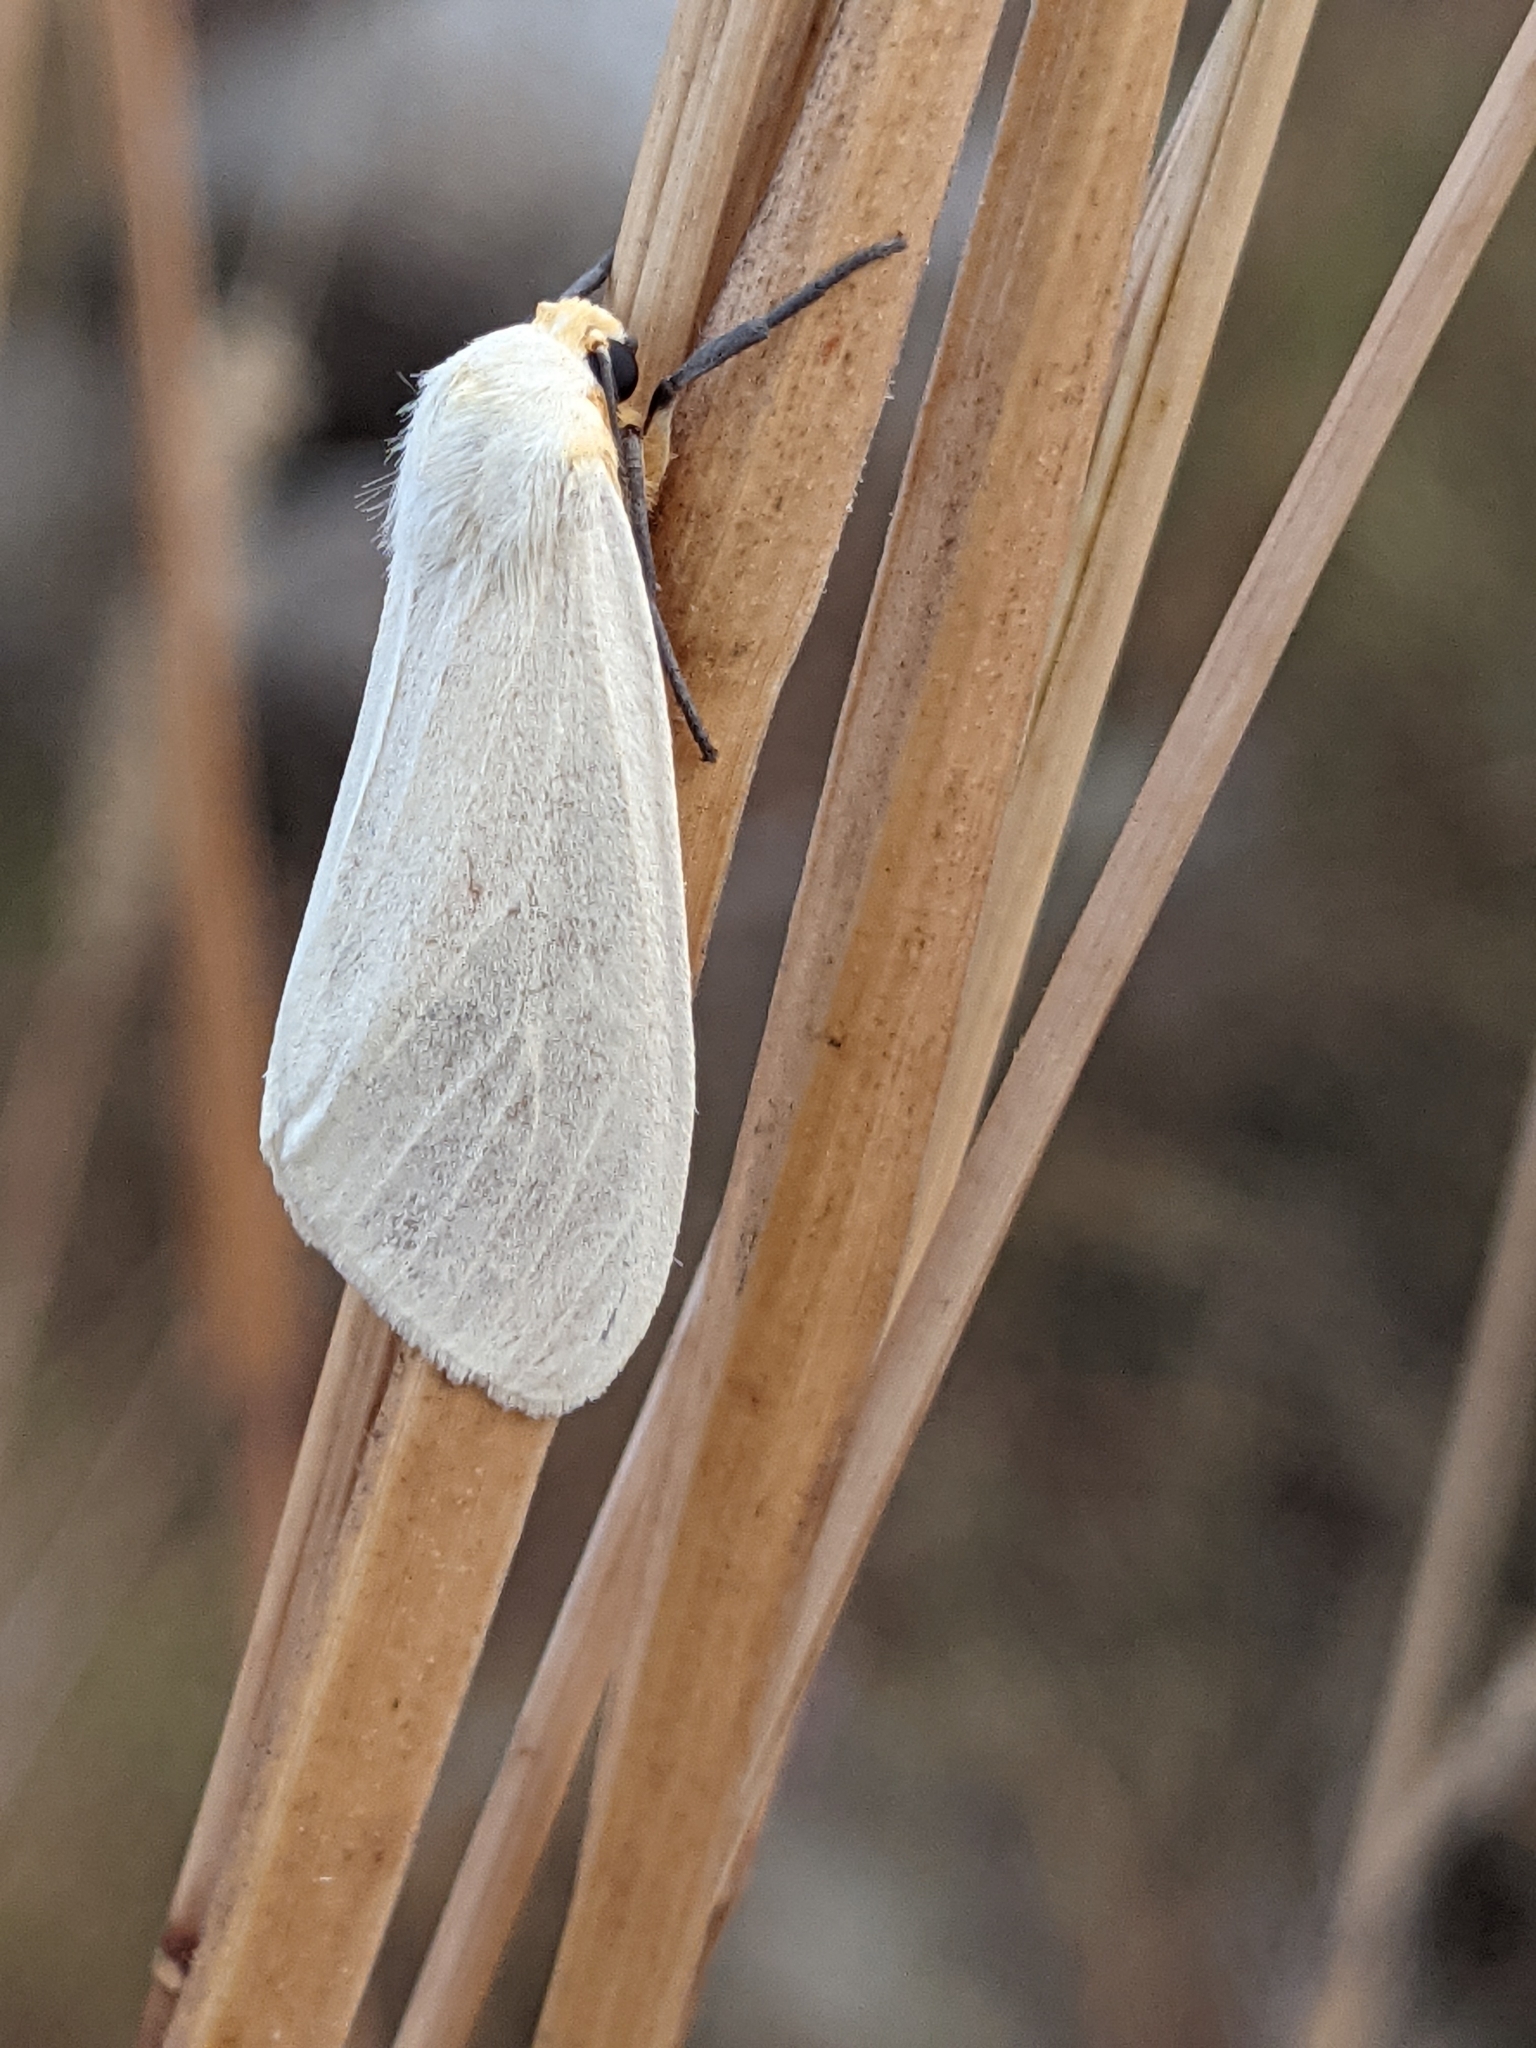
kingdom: Animalia
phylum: Arthropoda
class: Insecta
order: Lepidoptera
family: Erebidae
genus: Pareuchaetes
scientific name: Pareuchaetes pseudoinsulata
